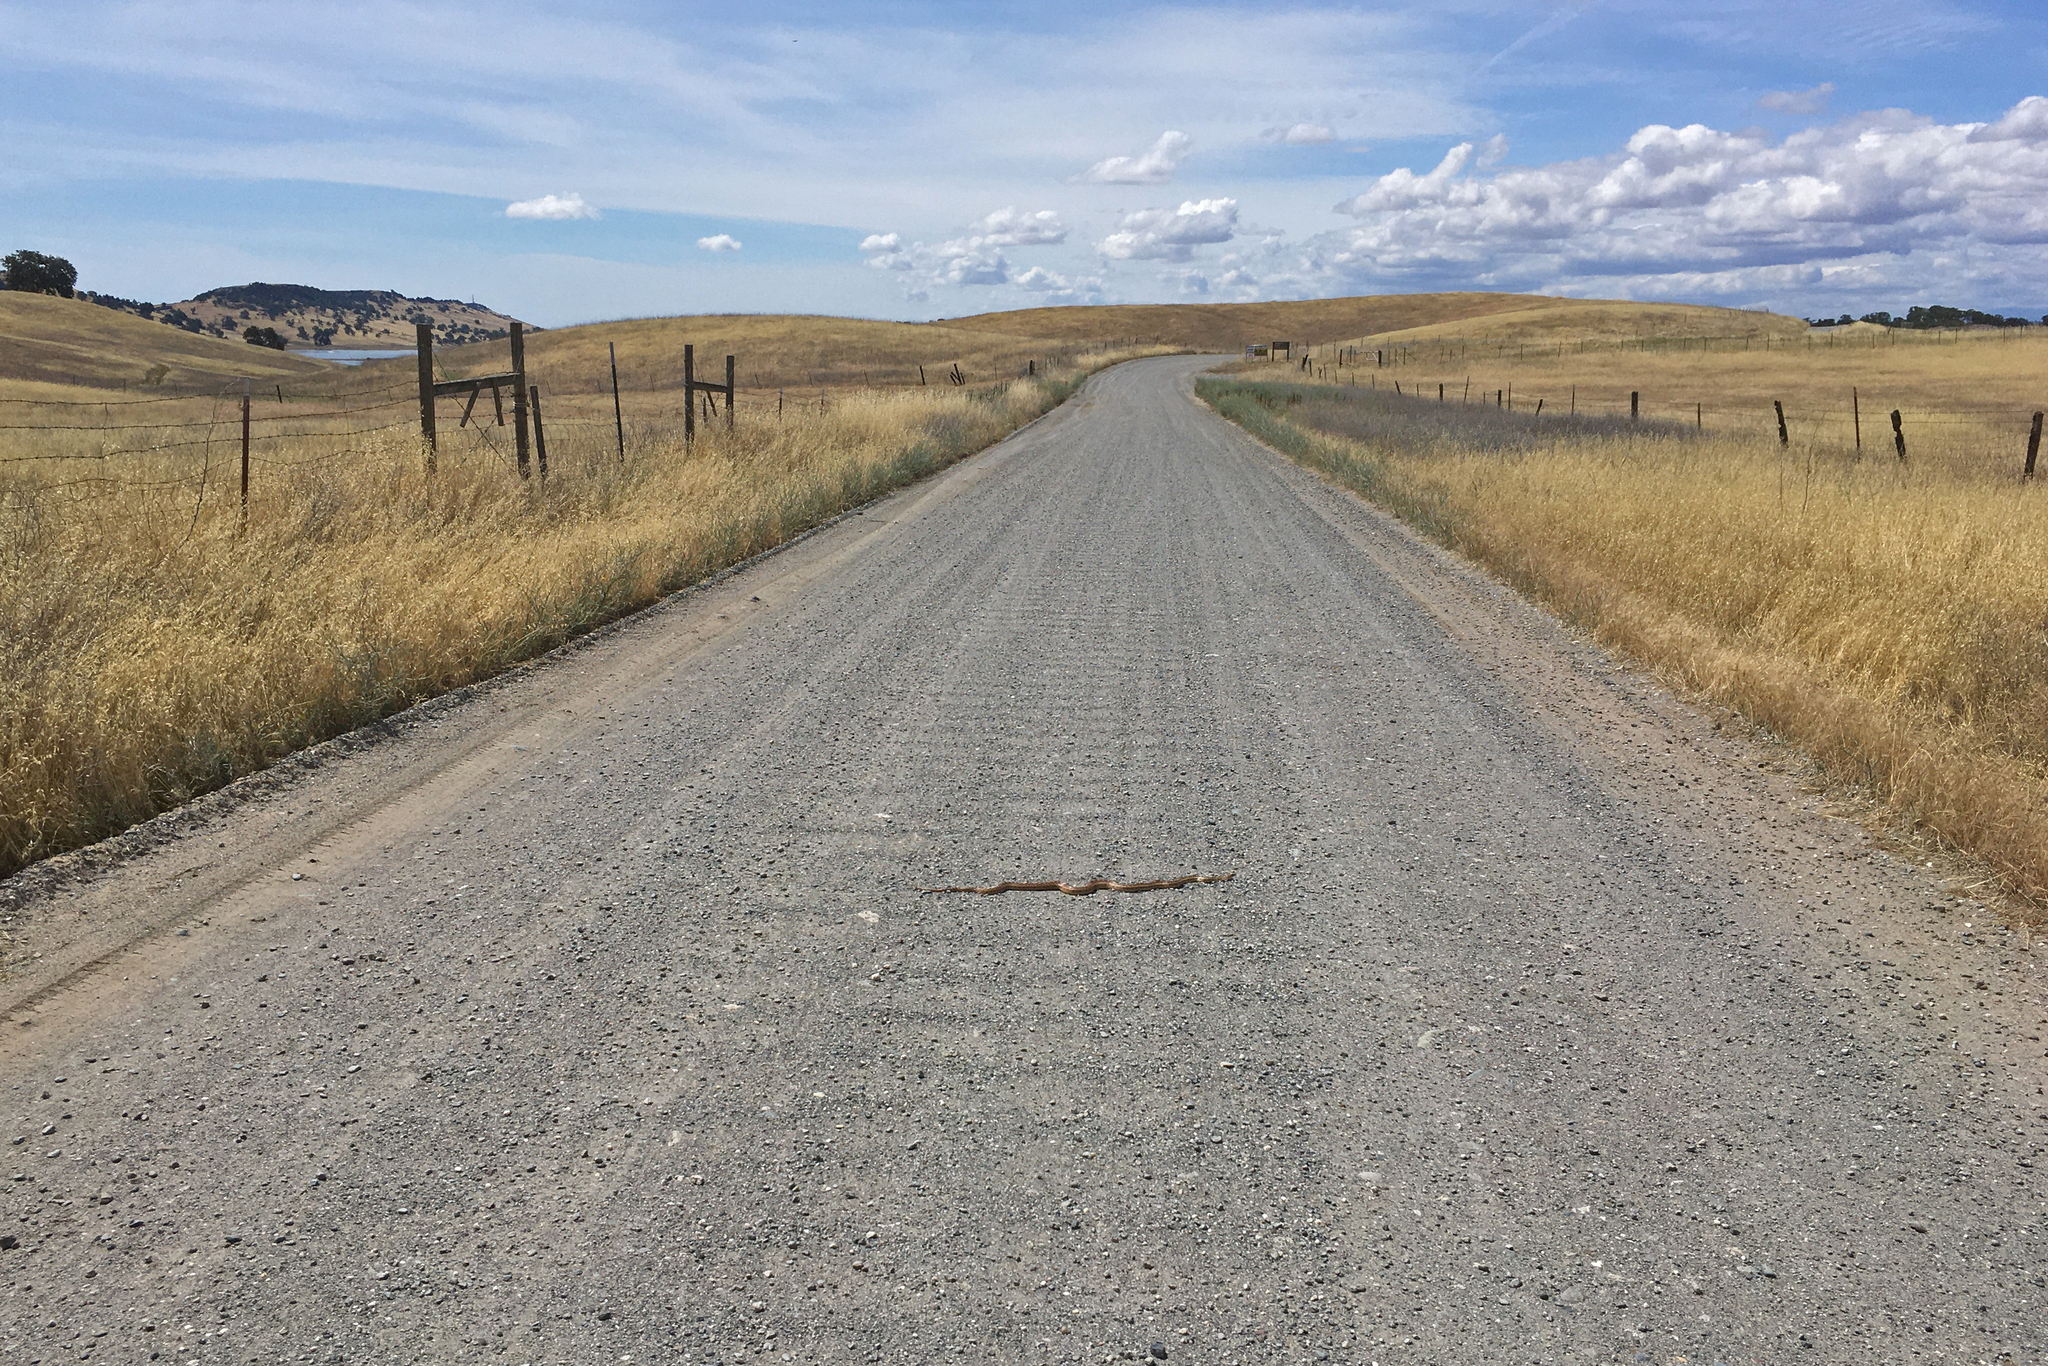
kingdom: Animalia
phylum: Chordata
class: Squamata
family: Colubridae
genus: Pituophis
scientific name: Pituophis catenifer
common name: Gopher snake
